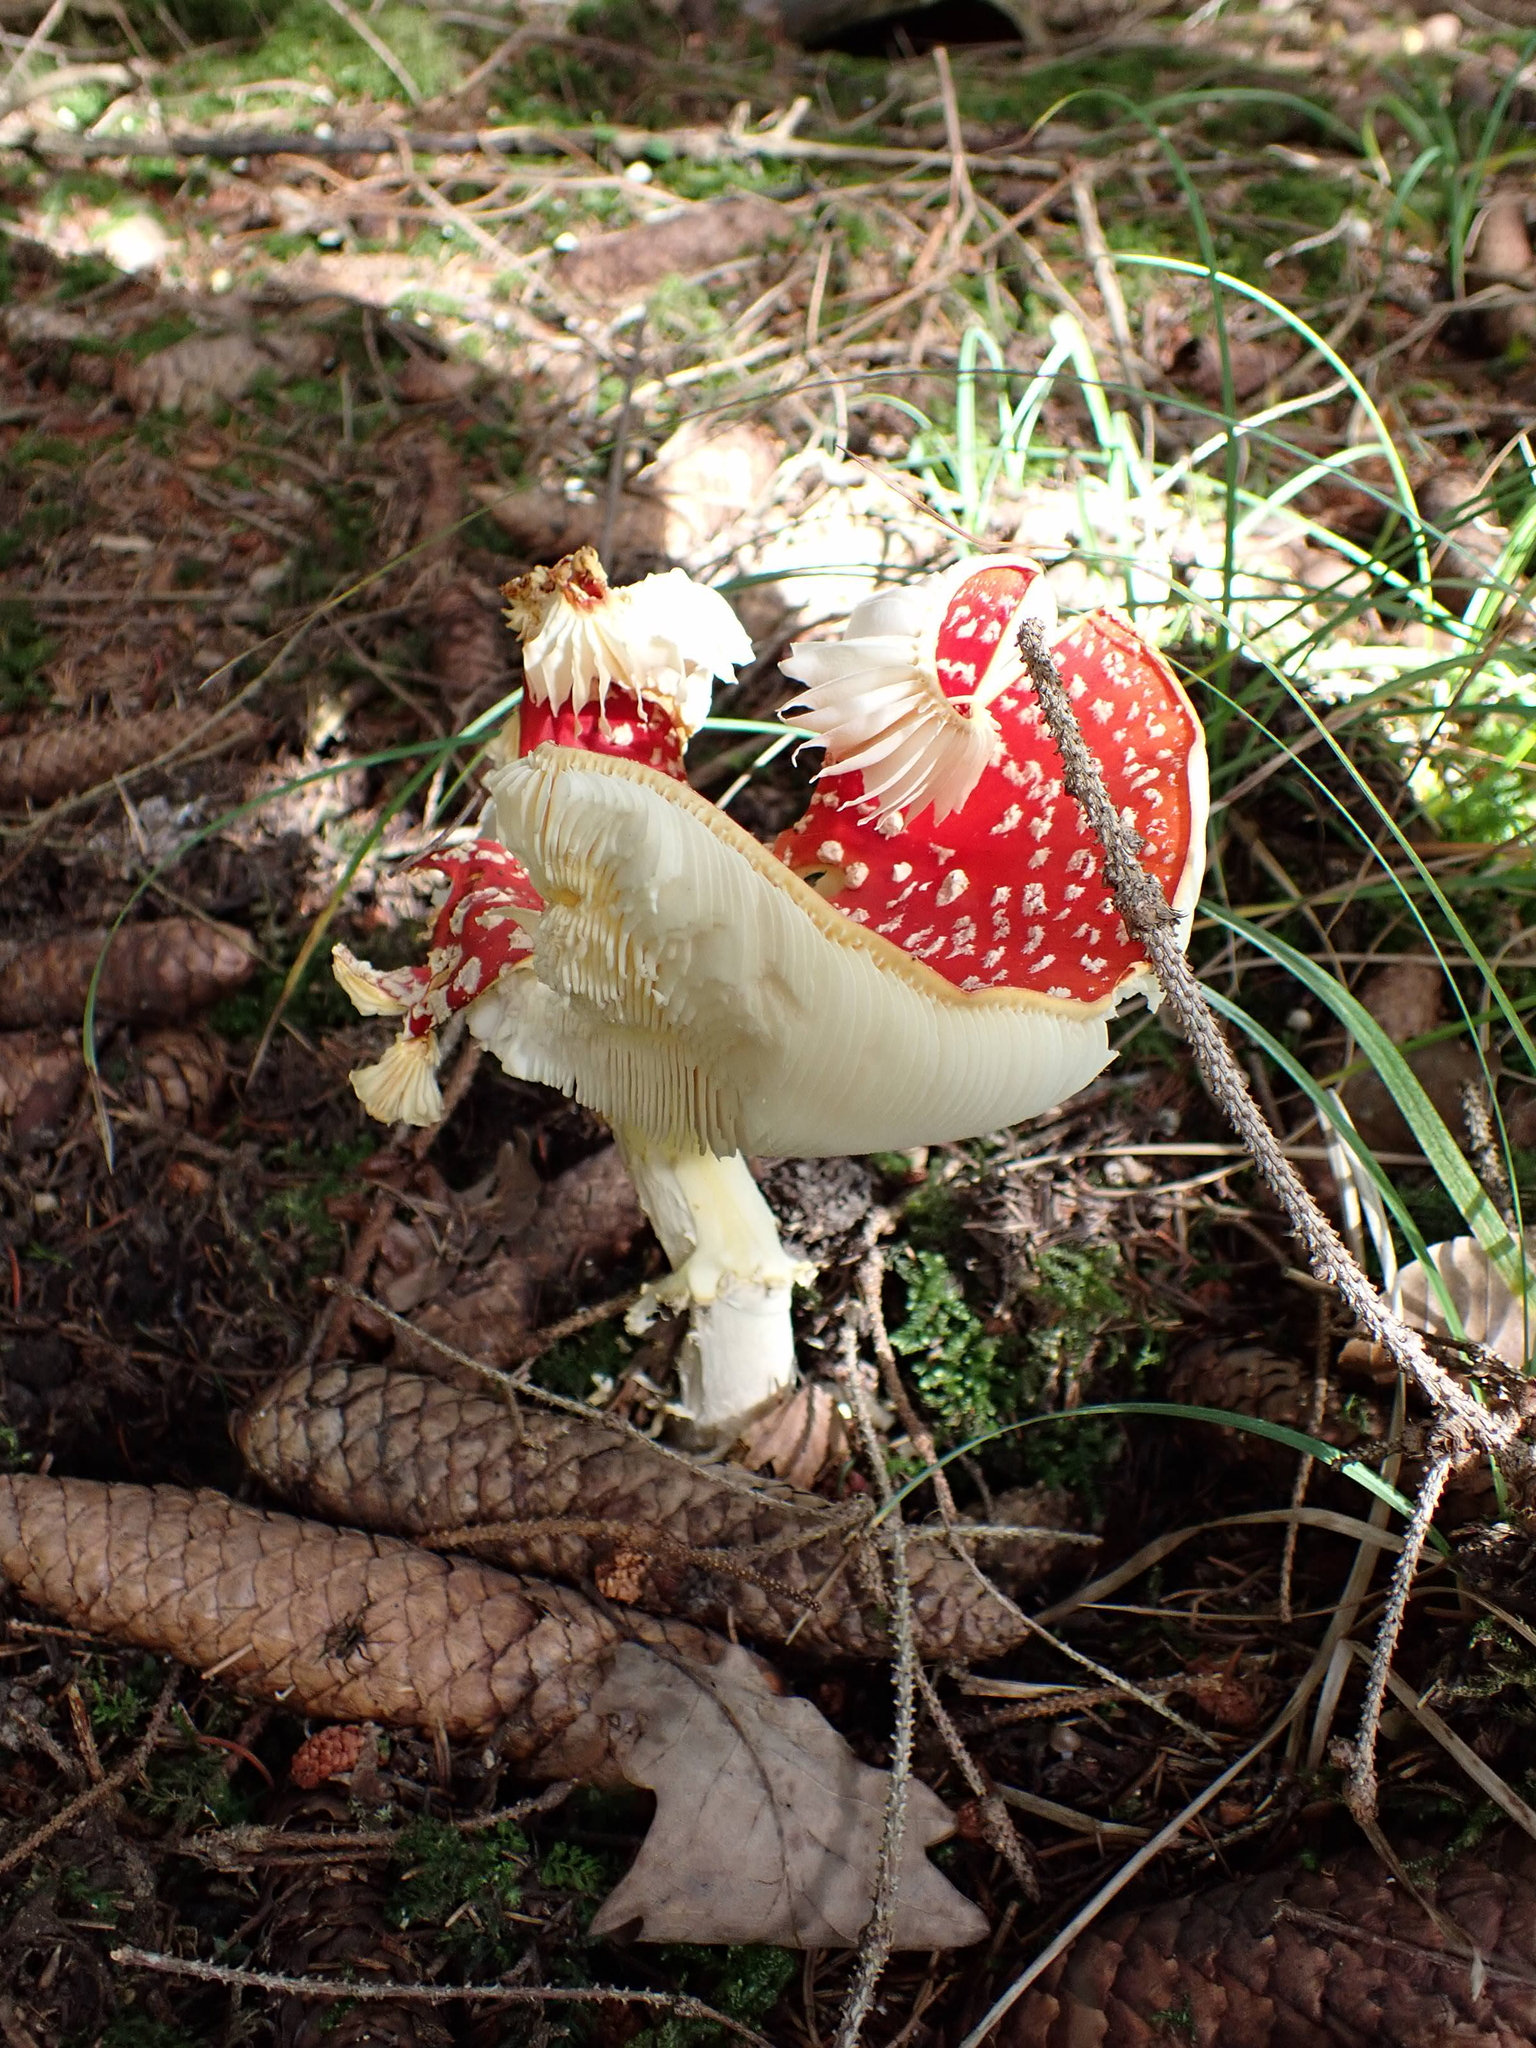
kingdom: Fungi
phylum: Basidiomycota
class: Agaricomycetes
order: Agaricales
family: Amanitaceae
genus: Amanita
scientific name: Amanita muscaria
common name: Fly agaric
